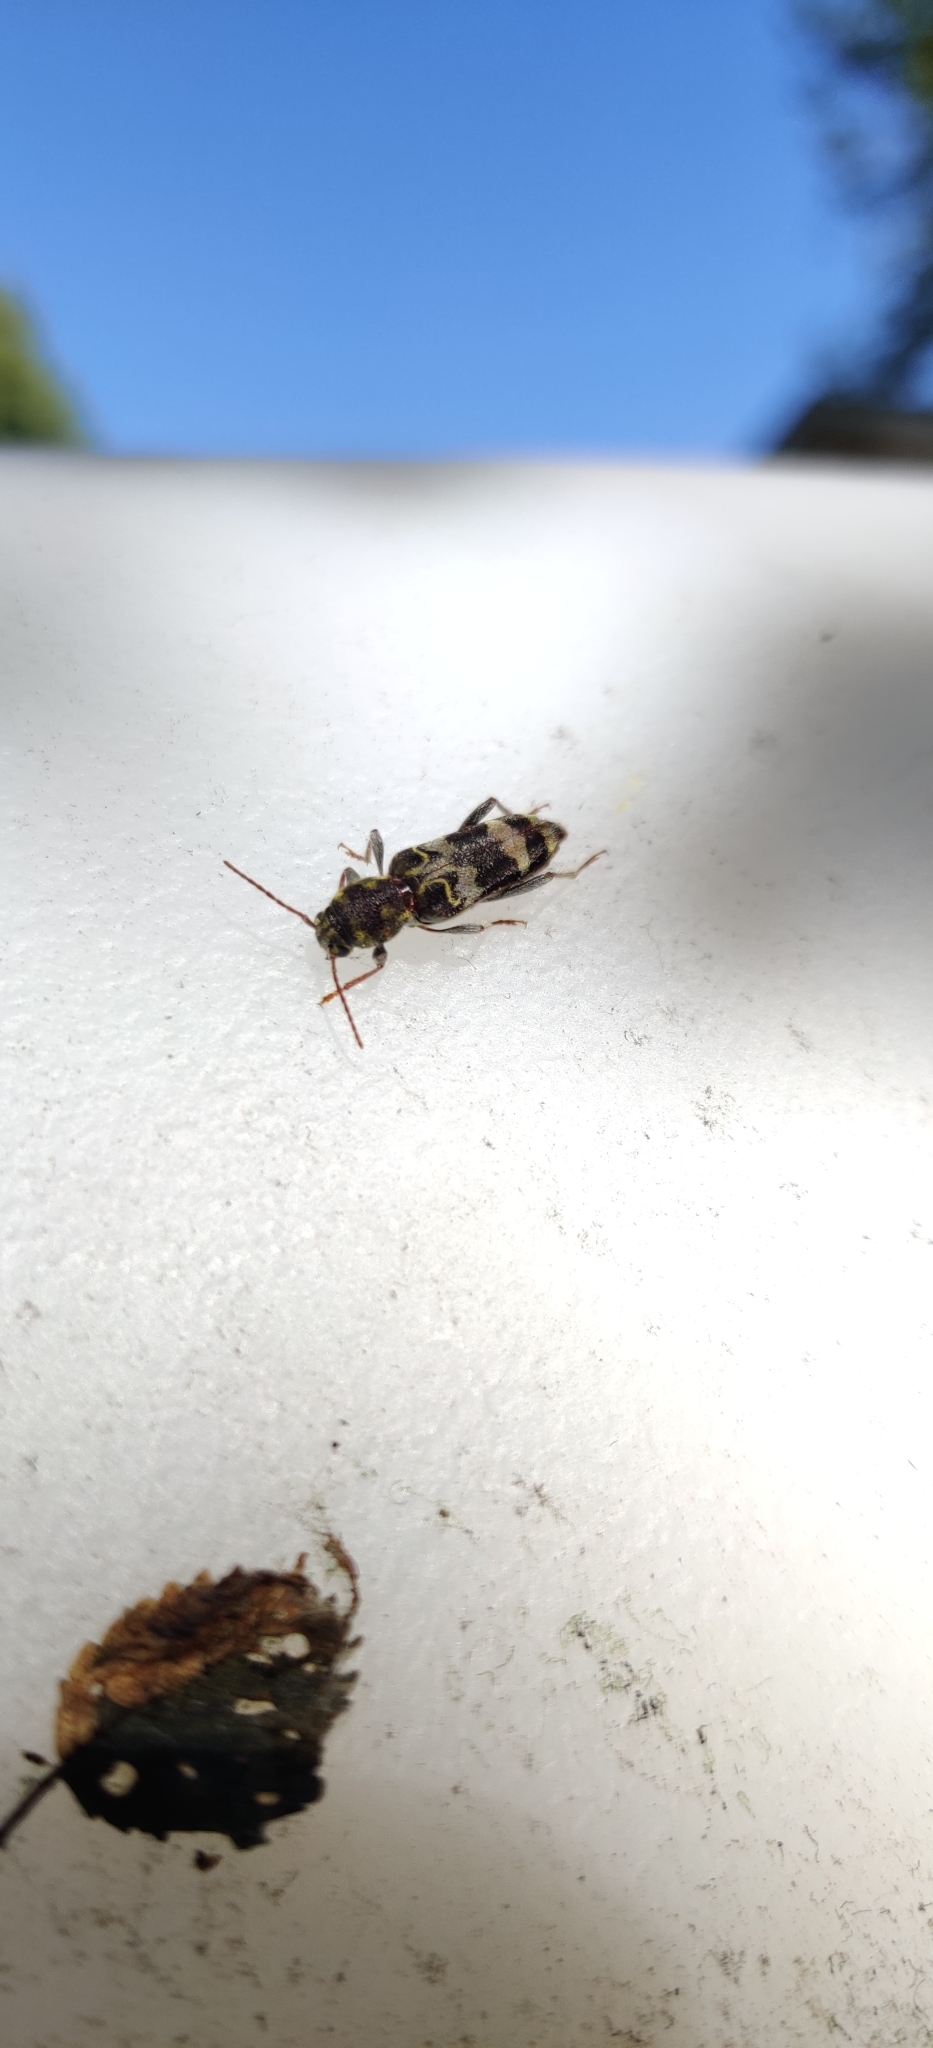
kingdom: Animalia
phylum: Arthropoda
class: Insecta
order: Coleoptera
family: Cerambycidae
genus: Xylotrechus
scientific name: Xylotrechus colonus
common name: Long-horned beetle
